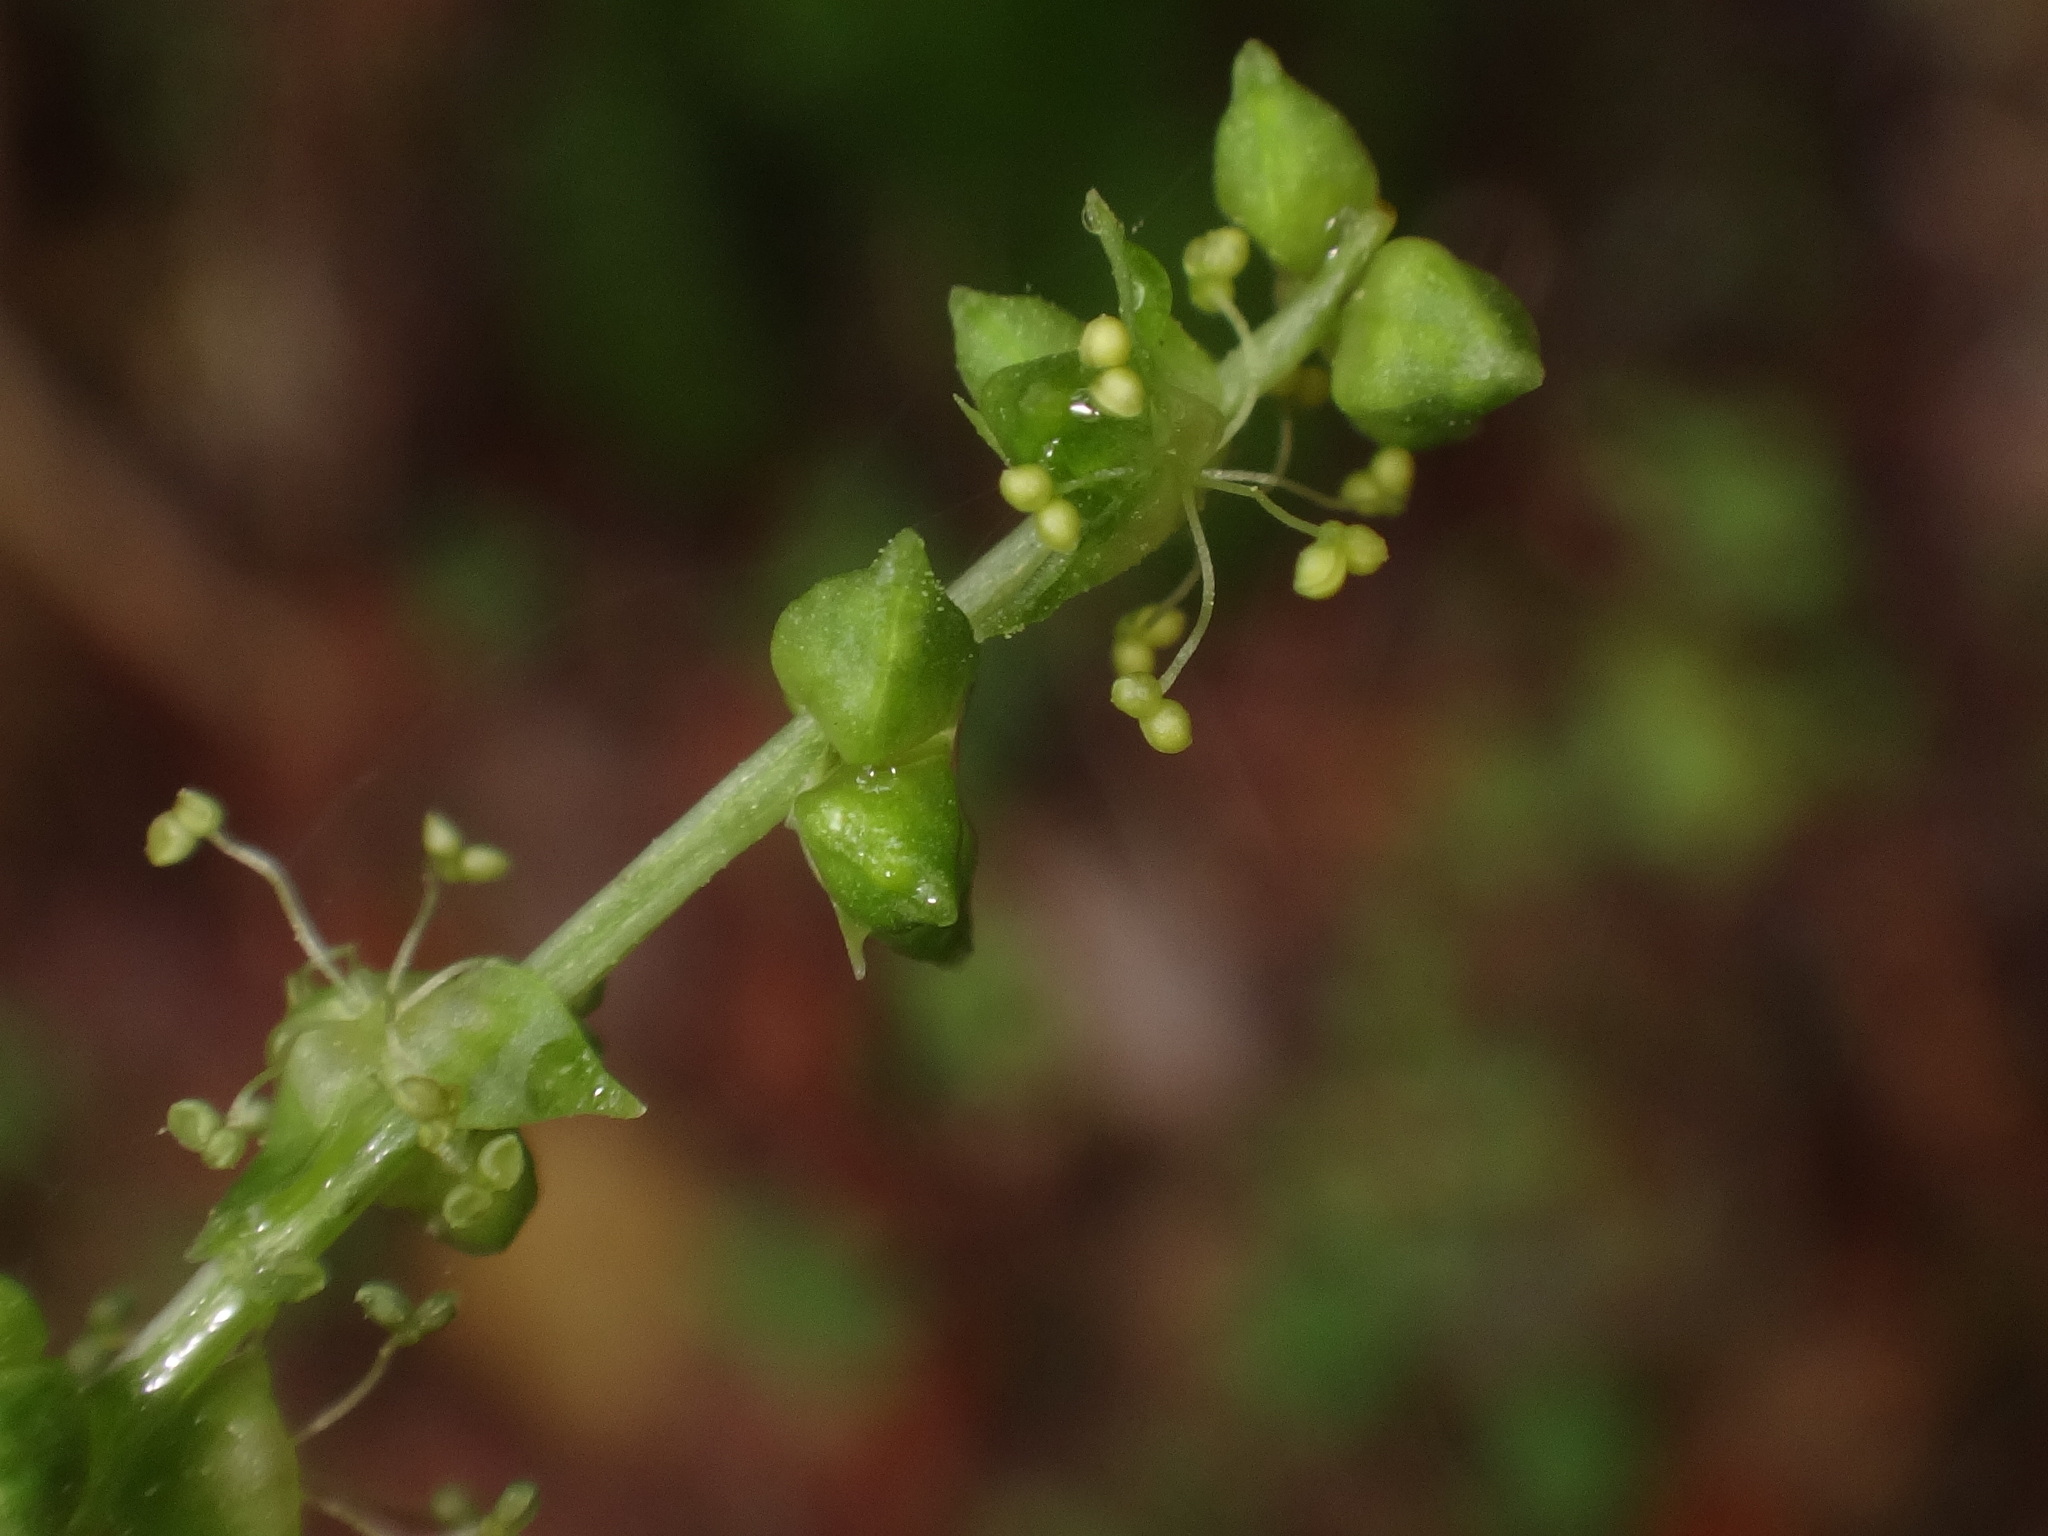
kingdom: Plantae
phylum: Tracheophyta
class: Magnoliopsida
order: Malpighiales
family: Euphorbiaceae
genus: Mercurialis
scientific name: Mercurialis perennis
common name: Dog mercury
